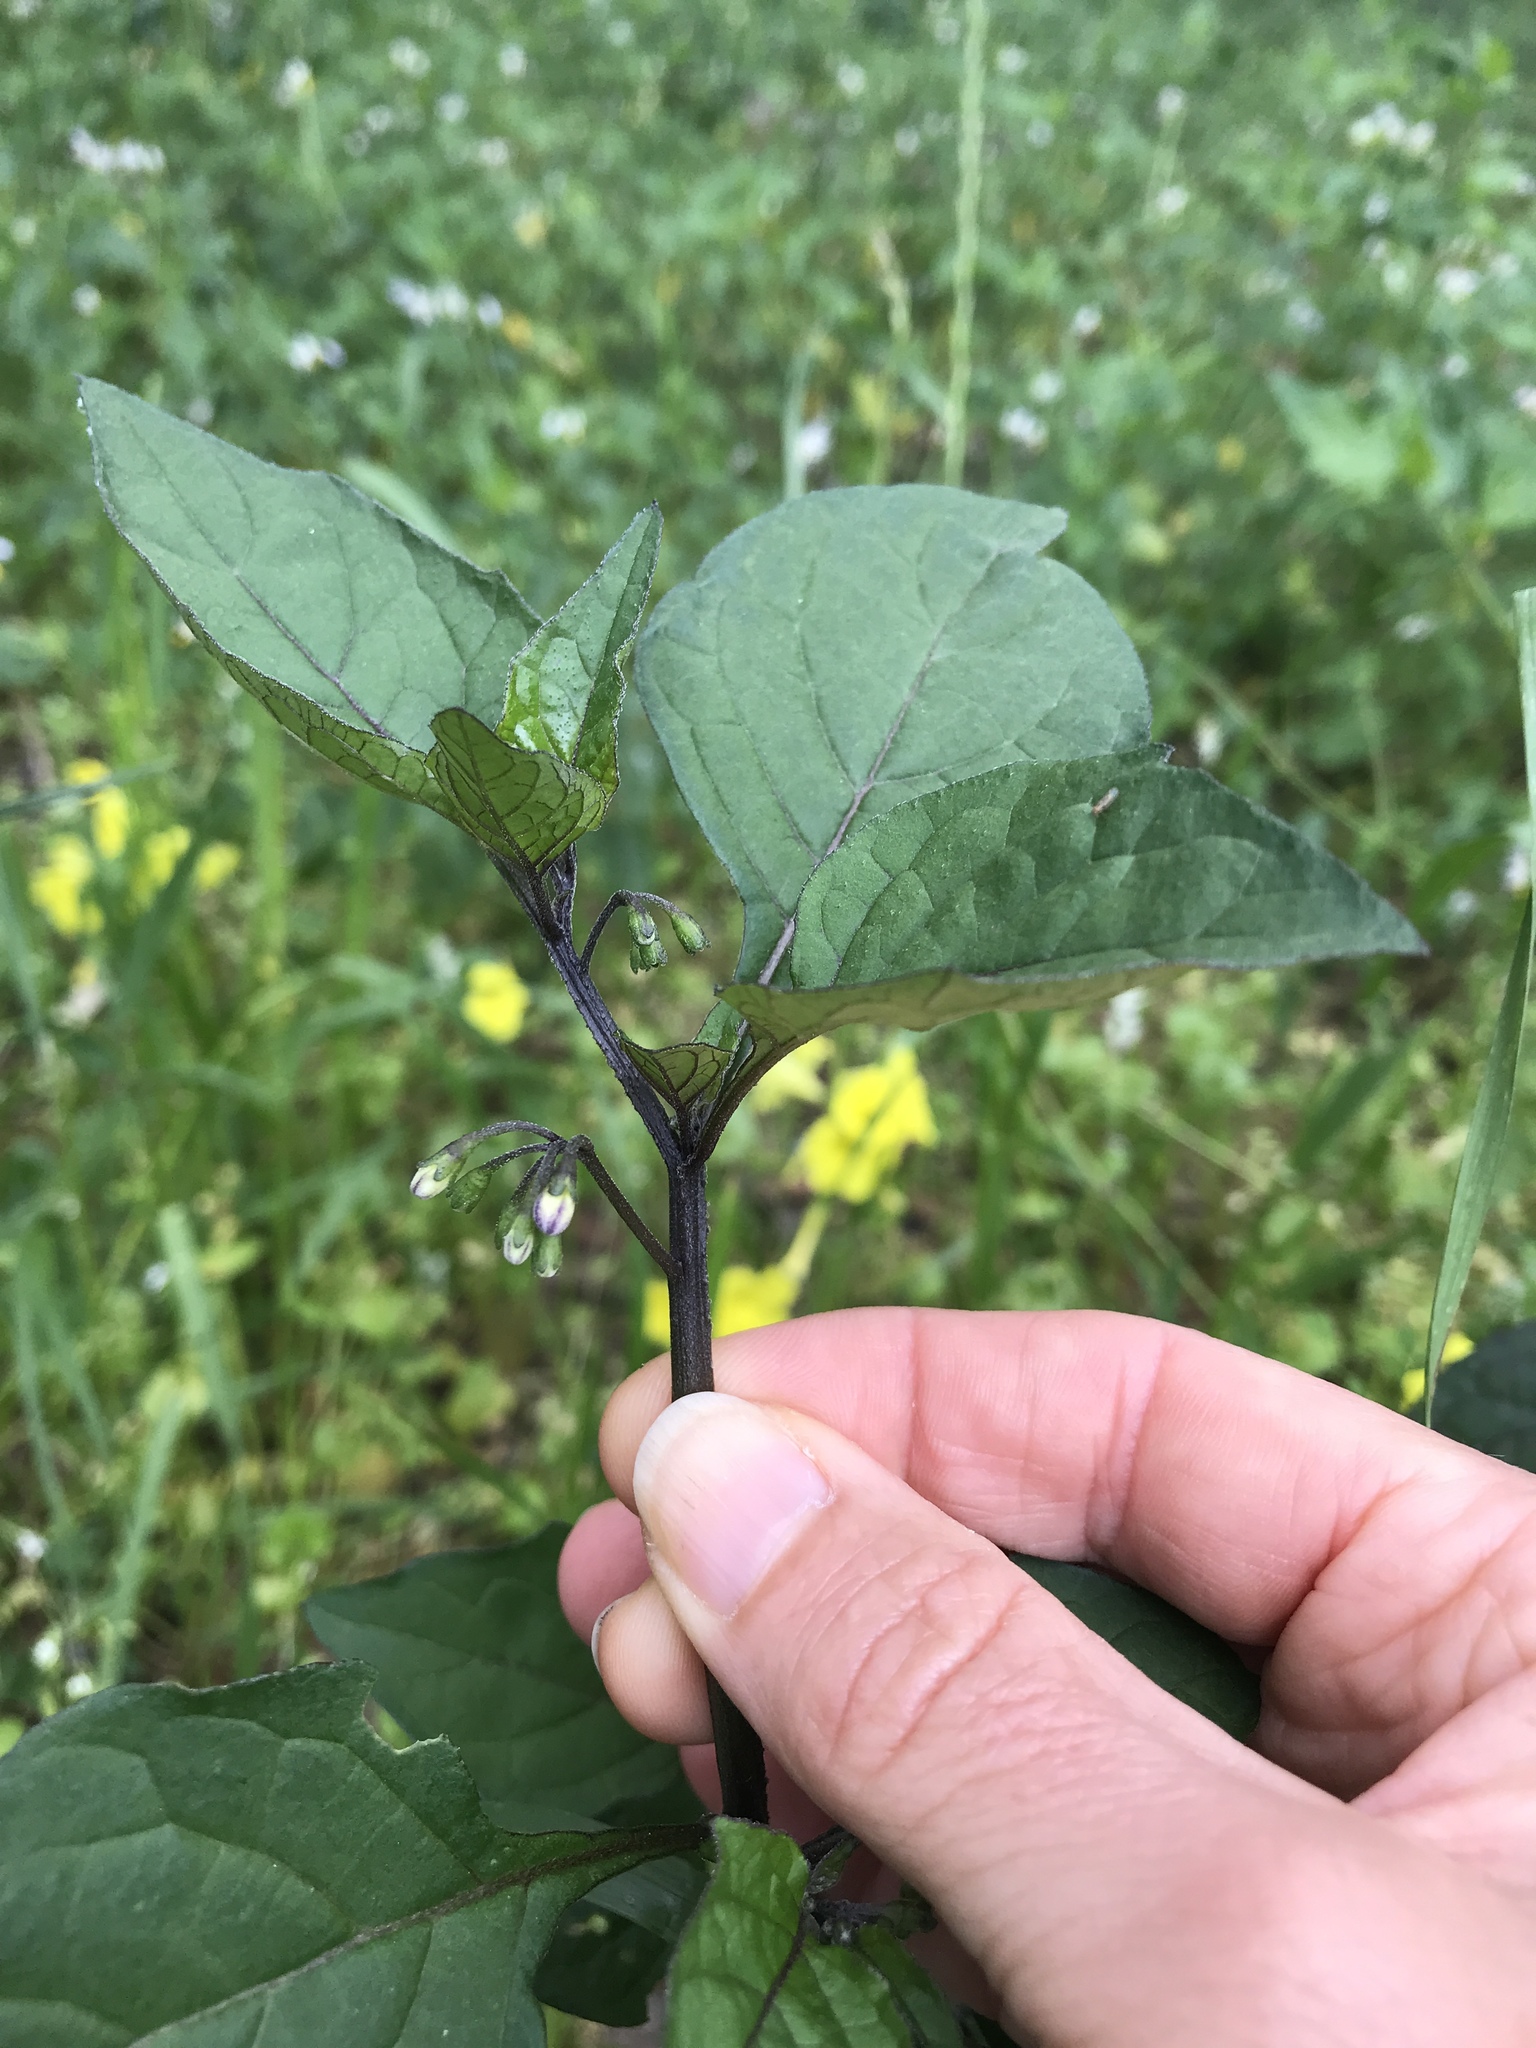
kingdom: Plantae
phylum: Tracheophyta
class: Magnoliopsida
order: Solanales
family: Solanaceae
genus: Solanum
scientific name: Solanum nigrum
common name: Black nightshade
